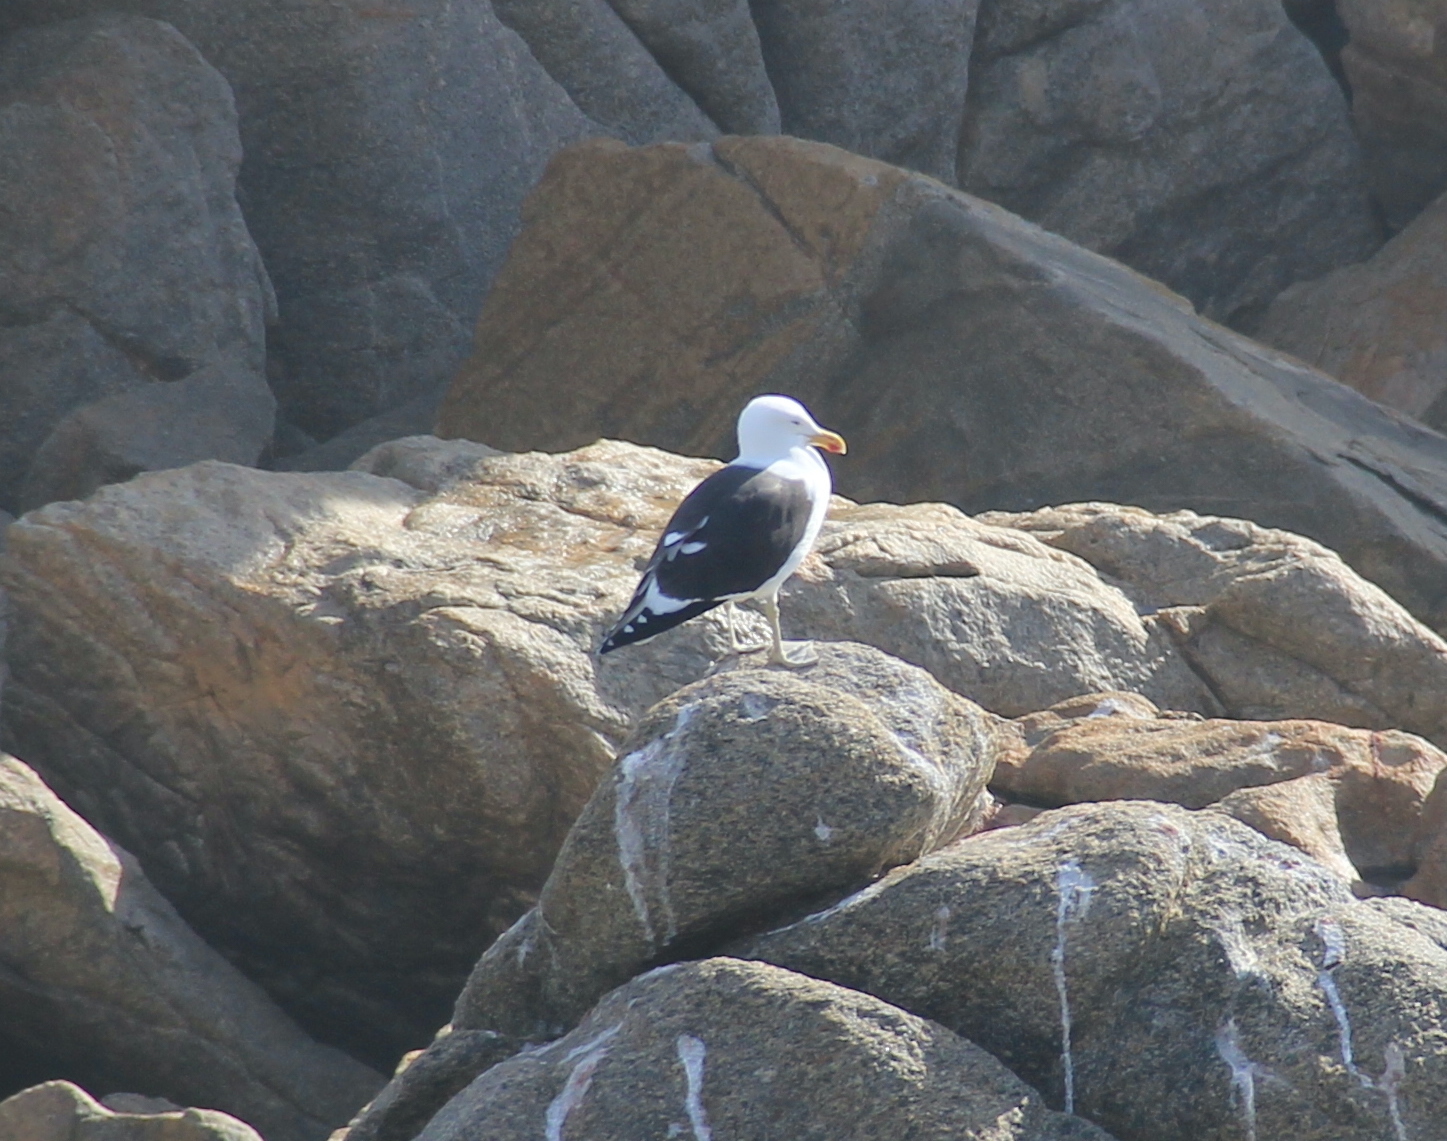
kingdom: Animalia
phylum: Chordata
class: Aves
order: Charadriiformes
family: Laridae
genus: Larus
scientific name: Larus dominicanus
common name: Kelp gull
